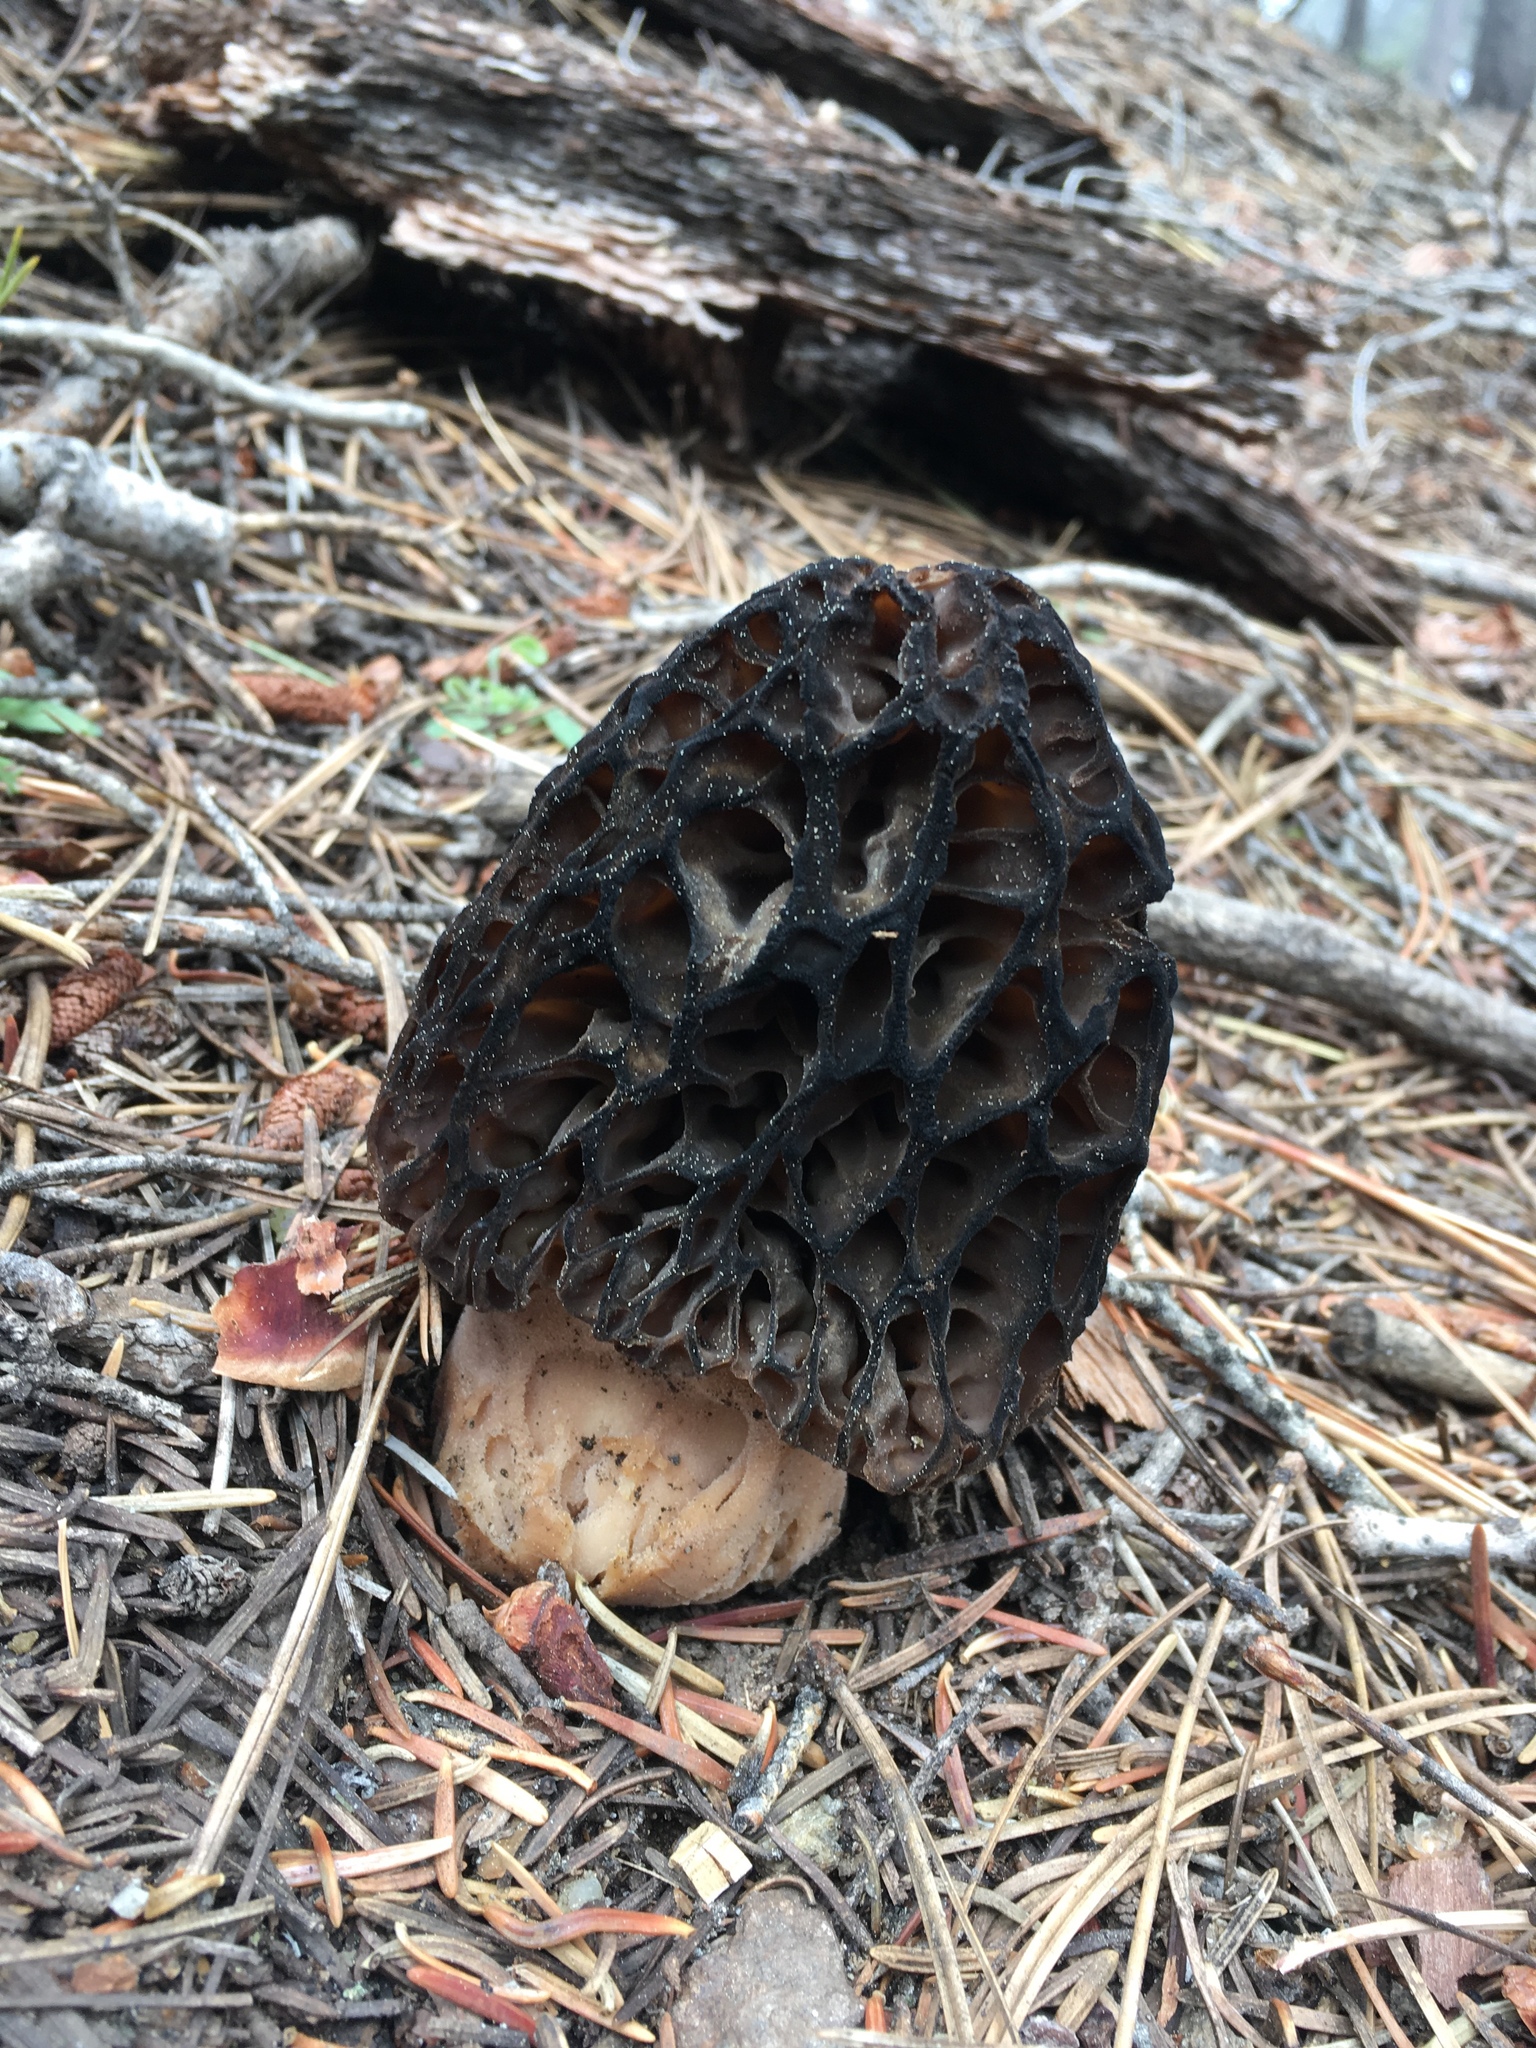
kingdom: Fungi
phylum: Ascomycota
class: Pezizomycetes
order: Pezizales
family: Morchellaceae
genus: Morchella
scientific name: Morchella snyderi
